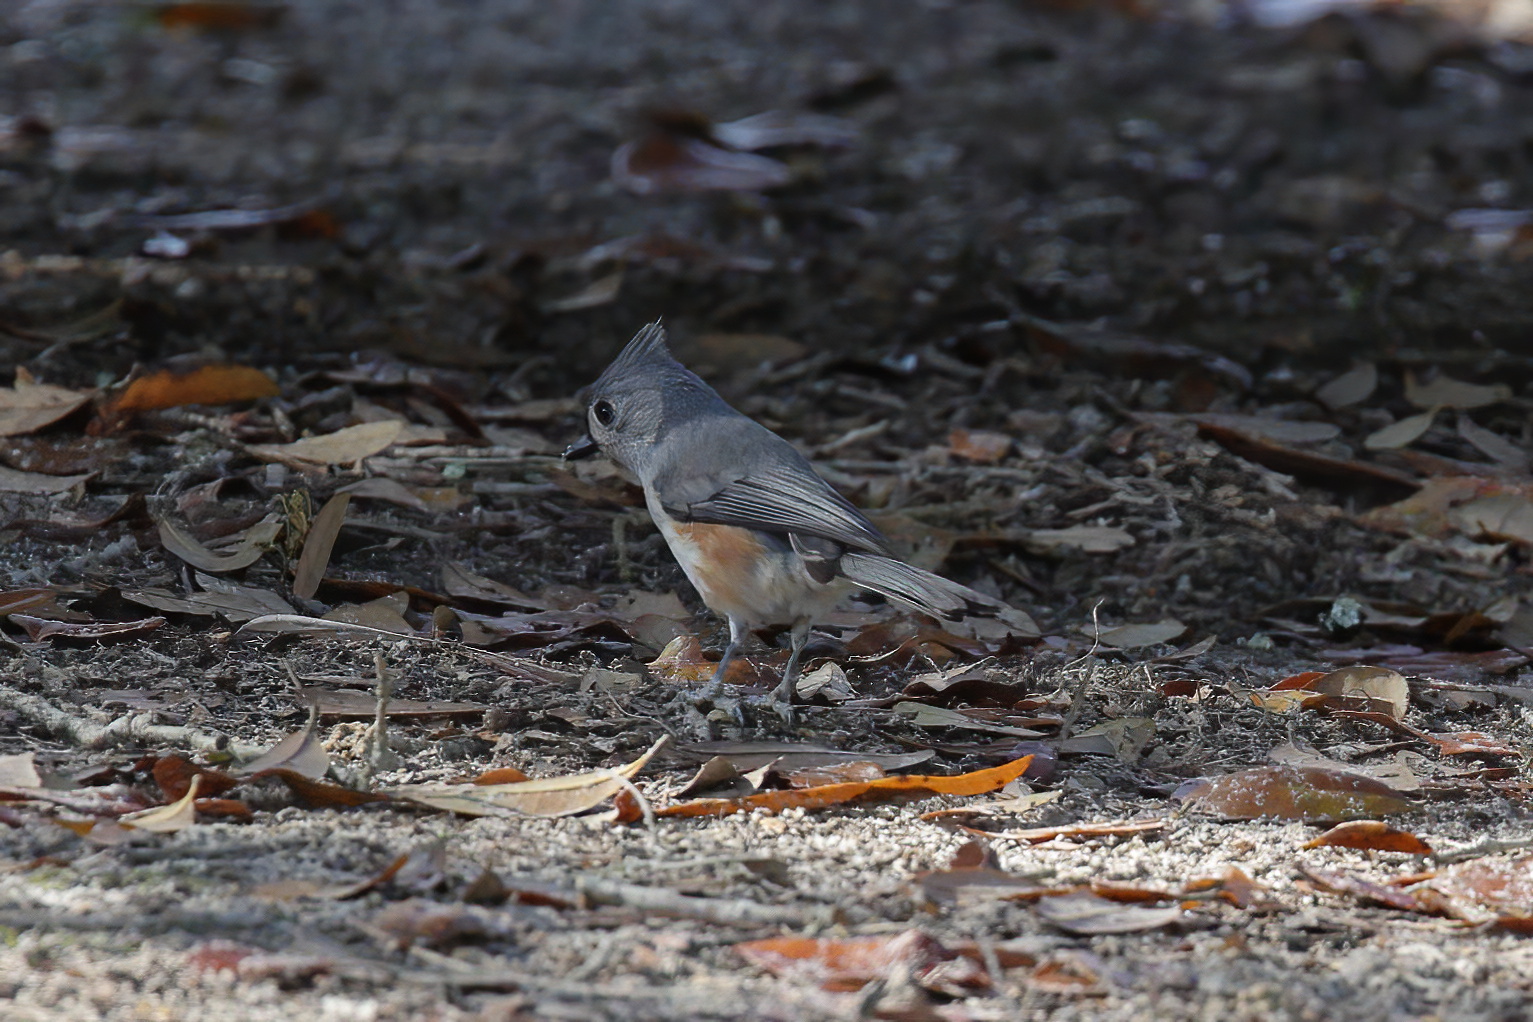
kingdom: Animalia
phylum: Chordata
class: Aves
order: Passeriformes
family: Paridae
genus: Baeolophus
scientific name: Baeolophus bicolor
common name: Tufted titmouse
